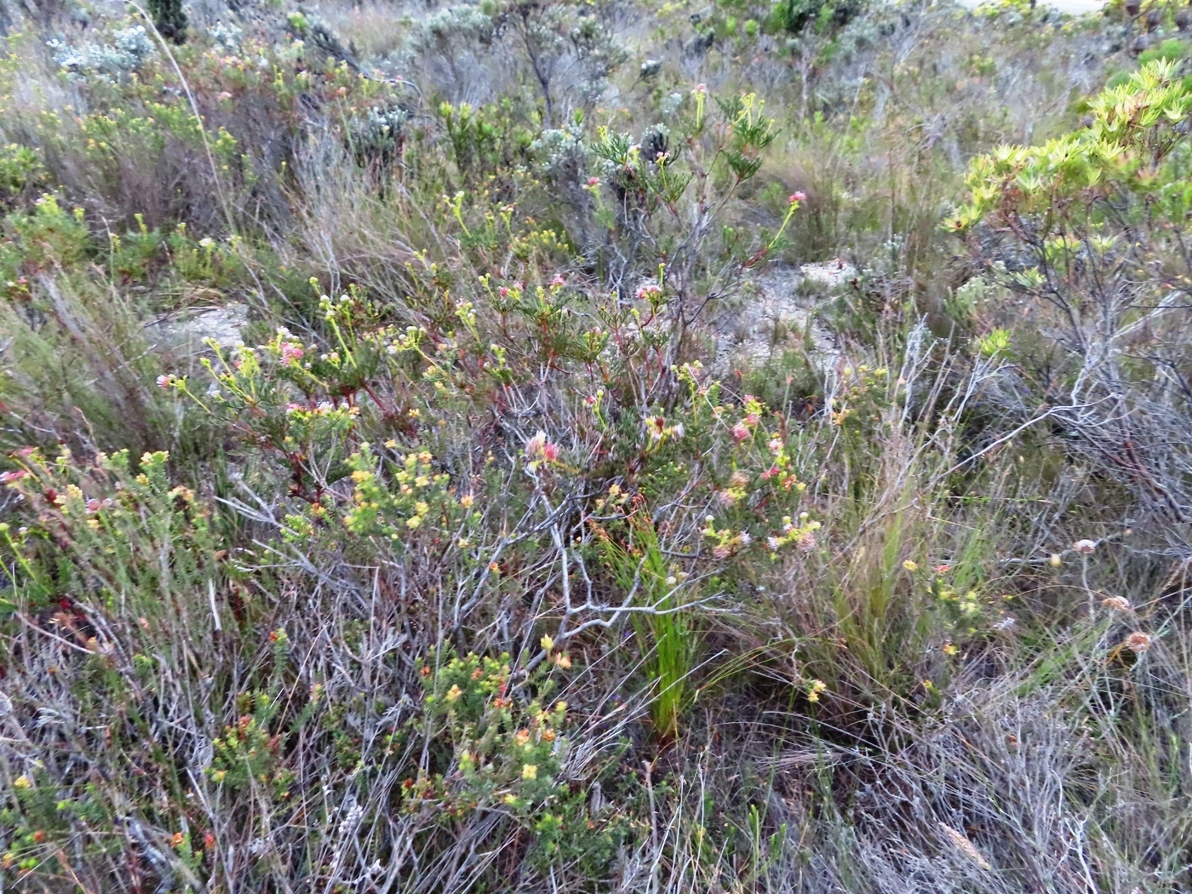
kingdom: Plantae
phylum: Tracheophyta
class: Magnoliopsida
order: Proteales
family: Proteaceae
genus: Serruria
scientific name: Serruria elongata
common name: Long-stalk spiderhead
